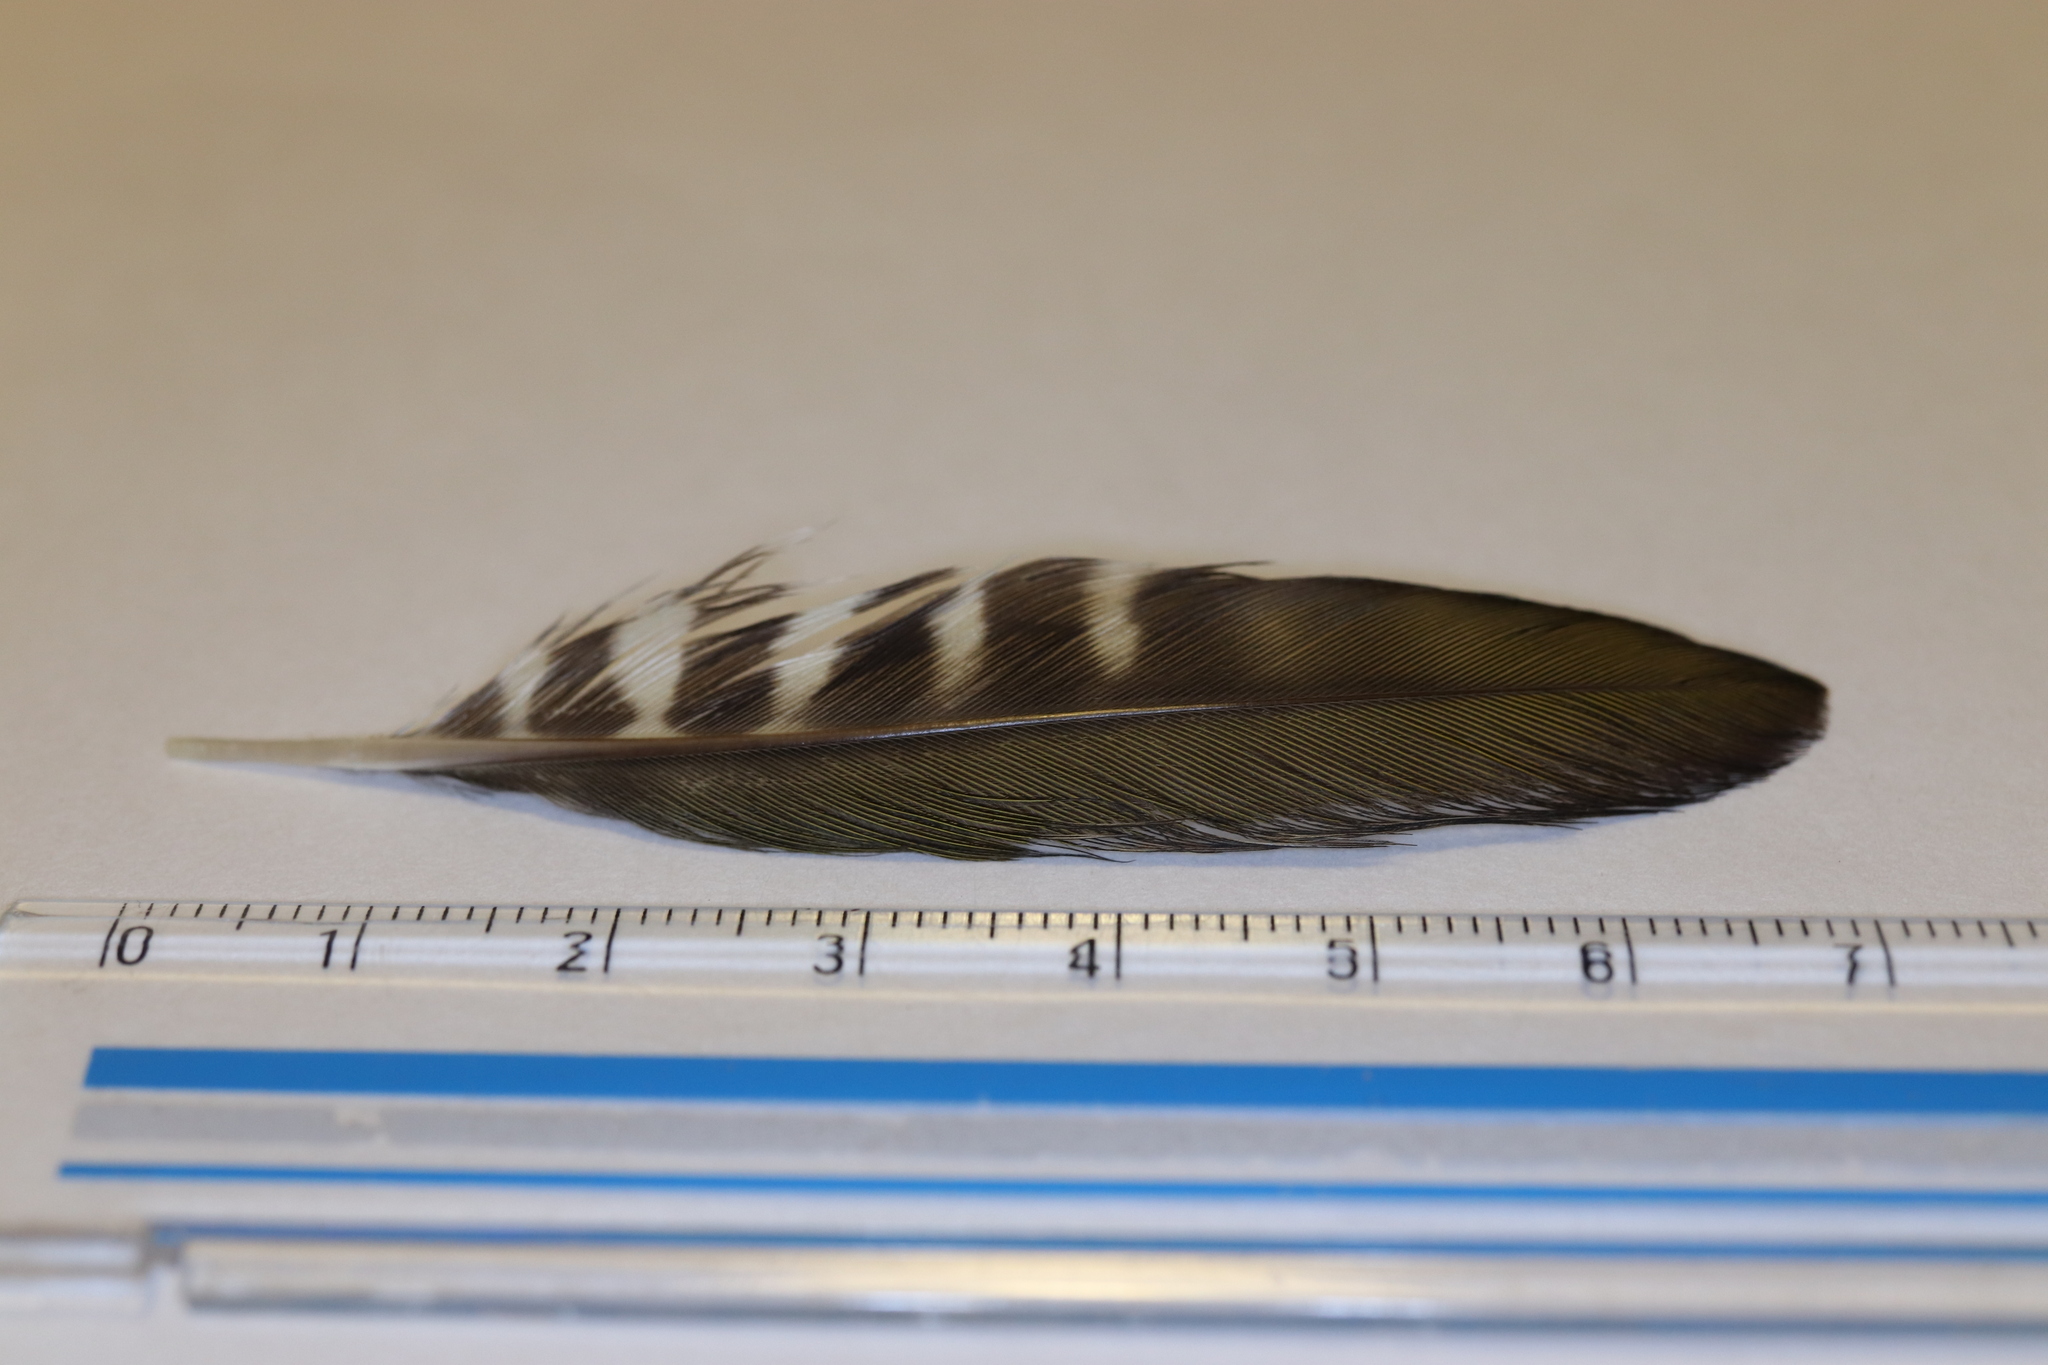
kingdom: Animalia
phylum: Chordata
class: Aves
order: Piciformes
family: Picidae
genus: Picus
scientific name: Picus awokera
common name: Japanese green woodpecker
